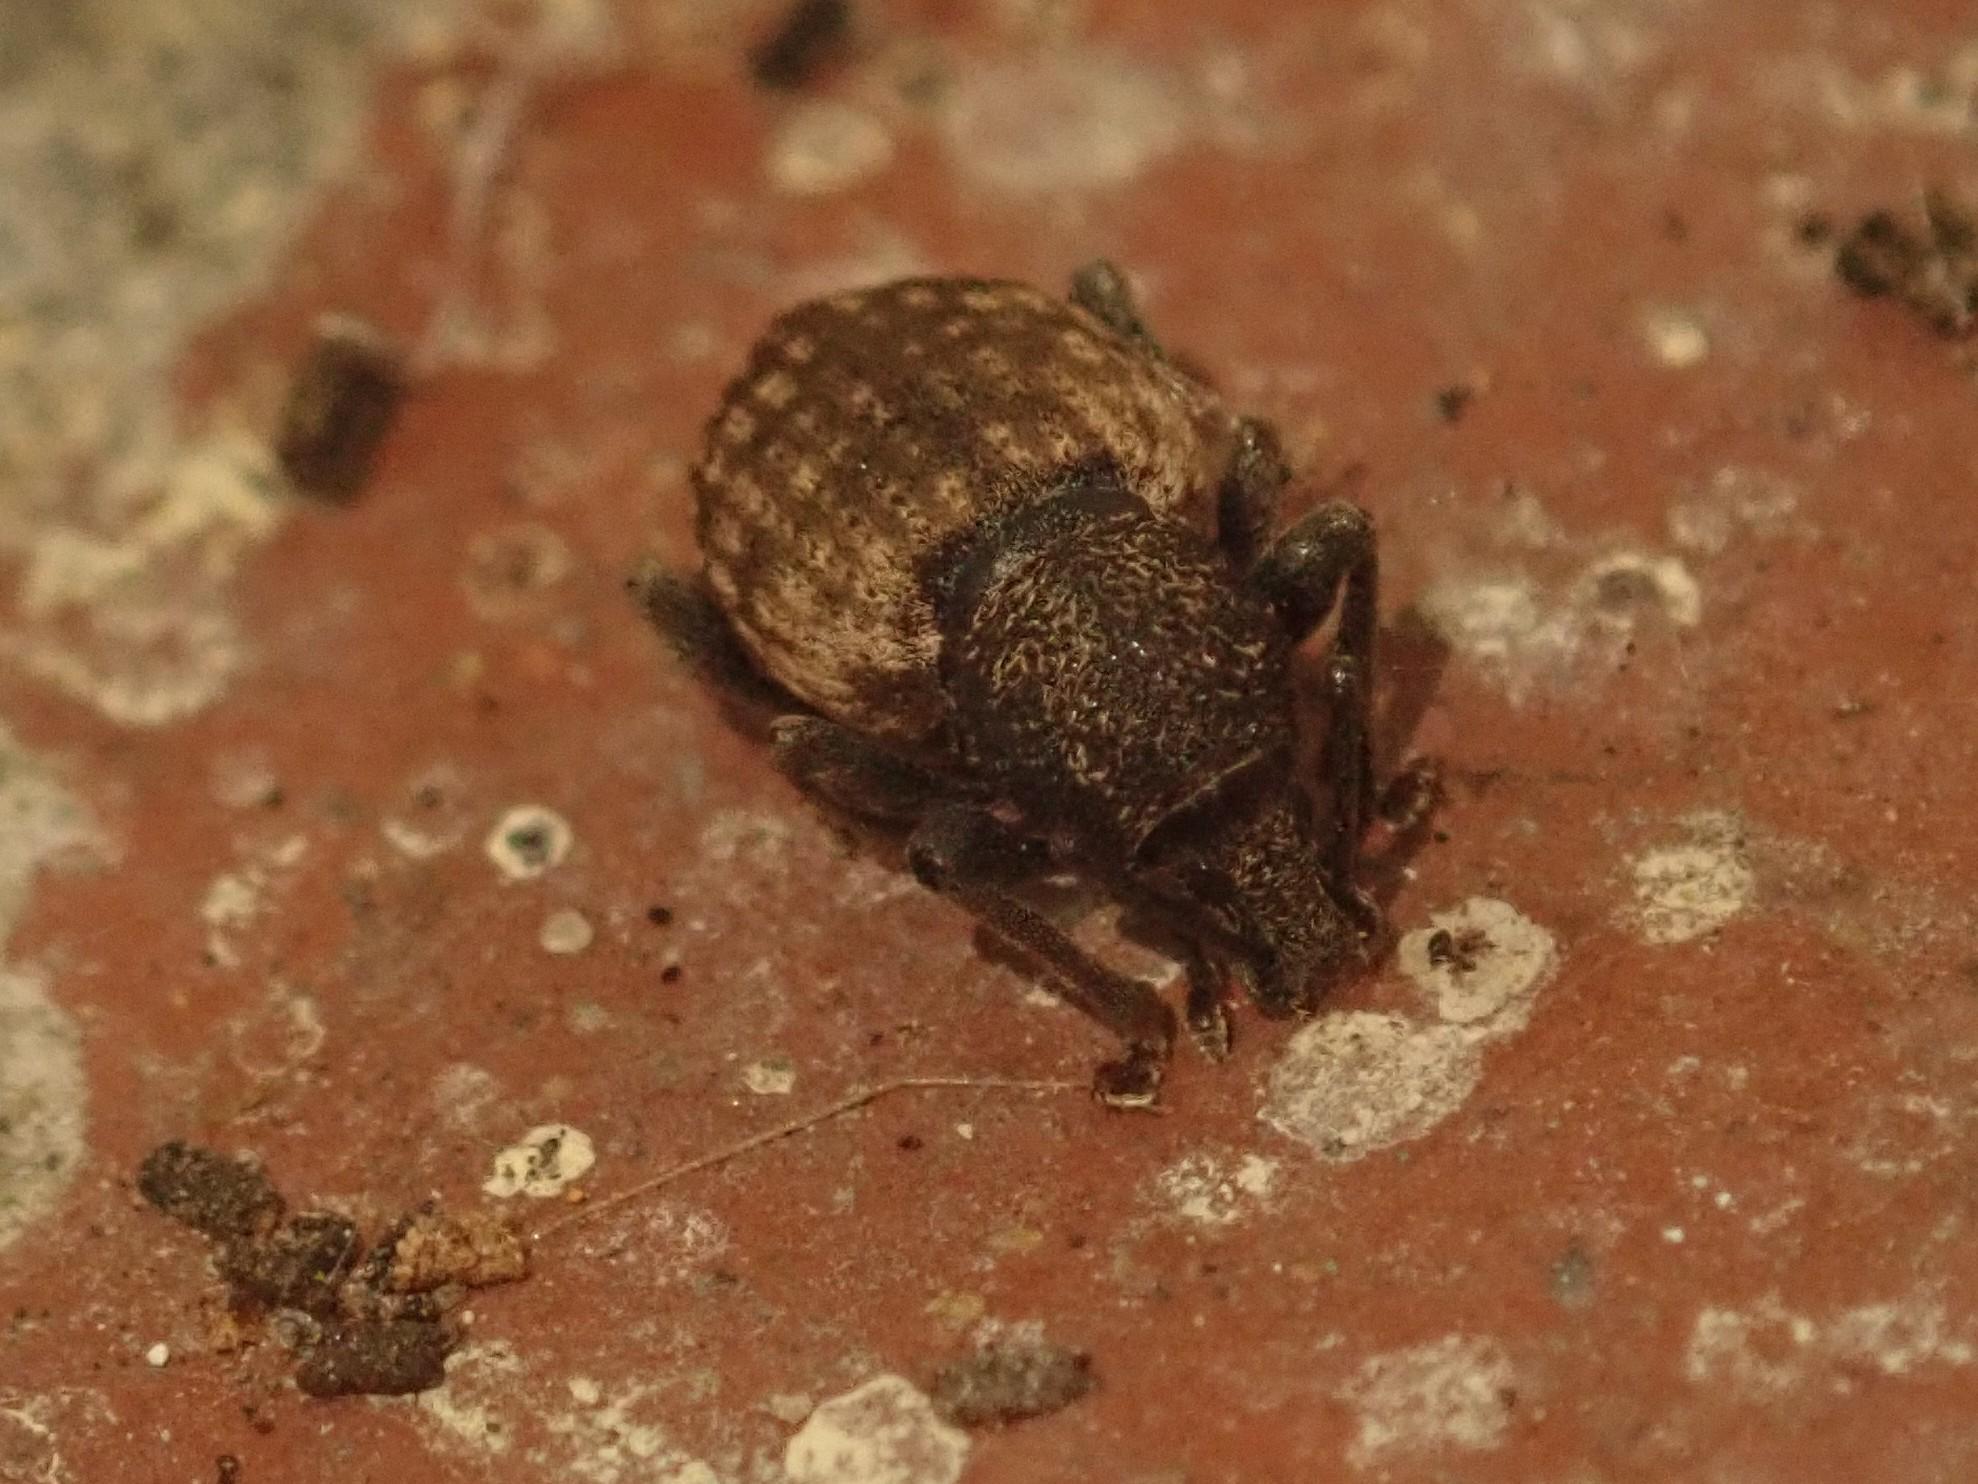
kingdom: Animalia
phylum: Arthropoda
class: Insecta
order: Coleoptera
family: Curculionidae
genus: Otiorhynchus
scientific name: Otiorhynchus raucus
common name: Weevil
